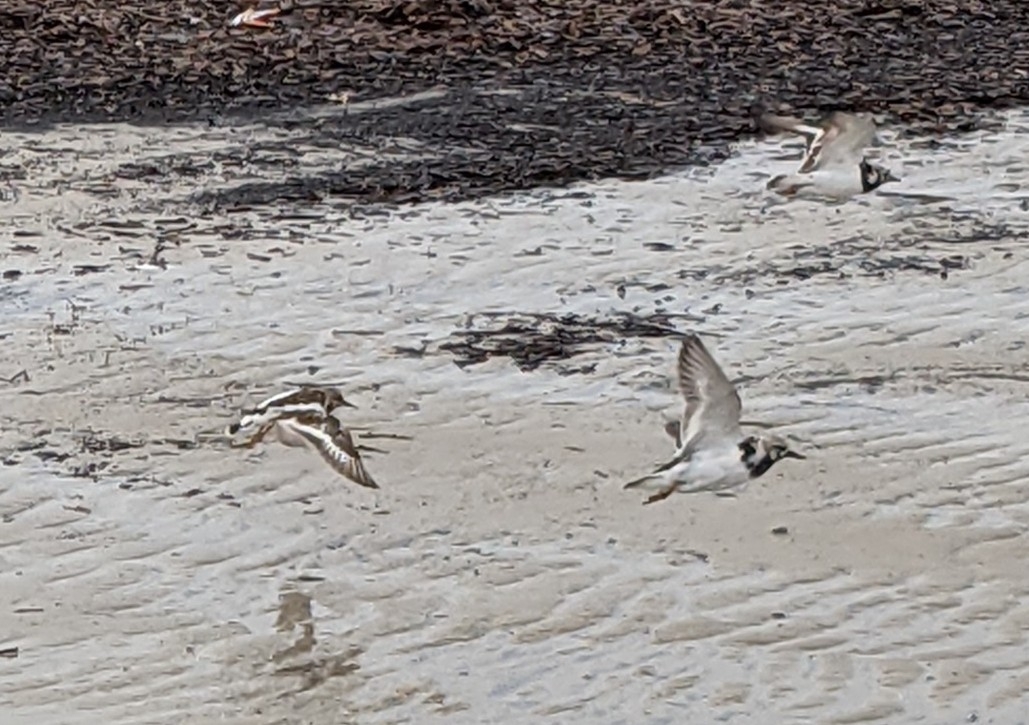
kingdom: Animalia
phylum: Chordata
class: Aves
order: Charadriiformes
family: Scolopacidae
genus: Arenaria
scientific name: Arenaria interpres
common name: Ruddy turnstone
